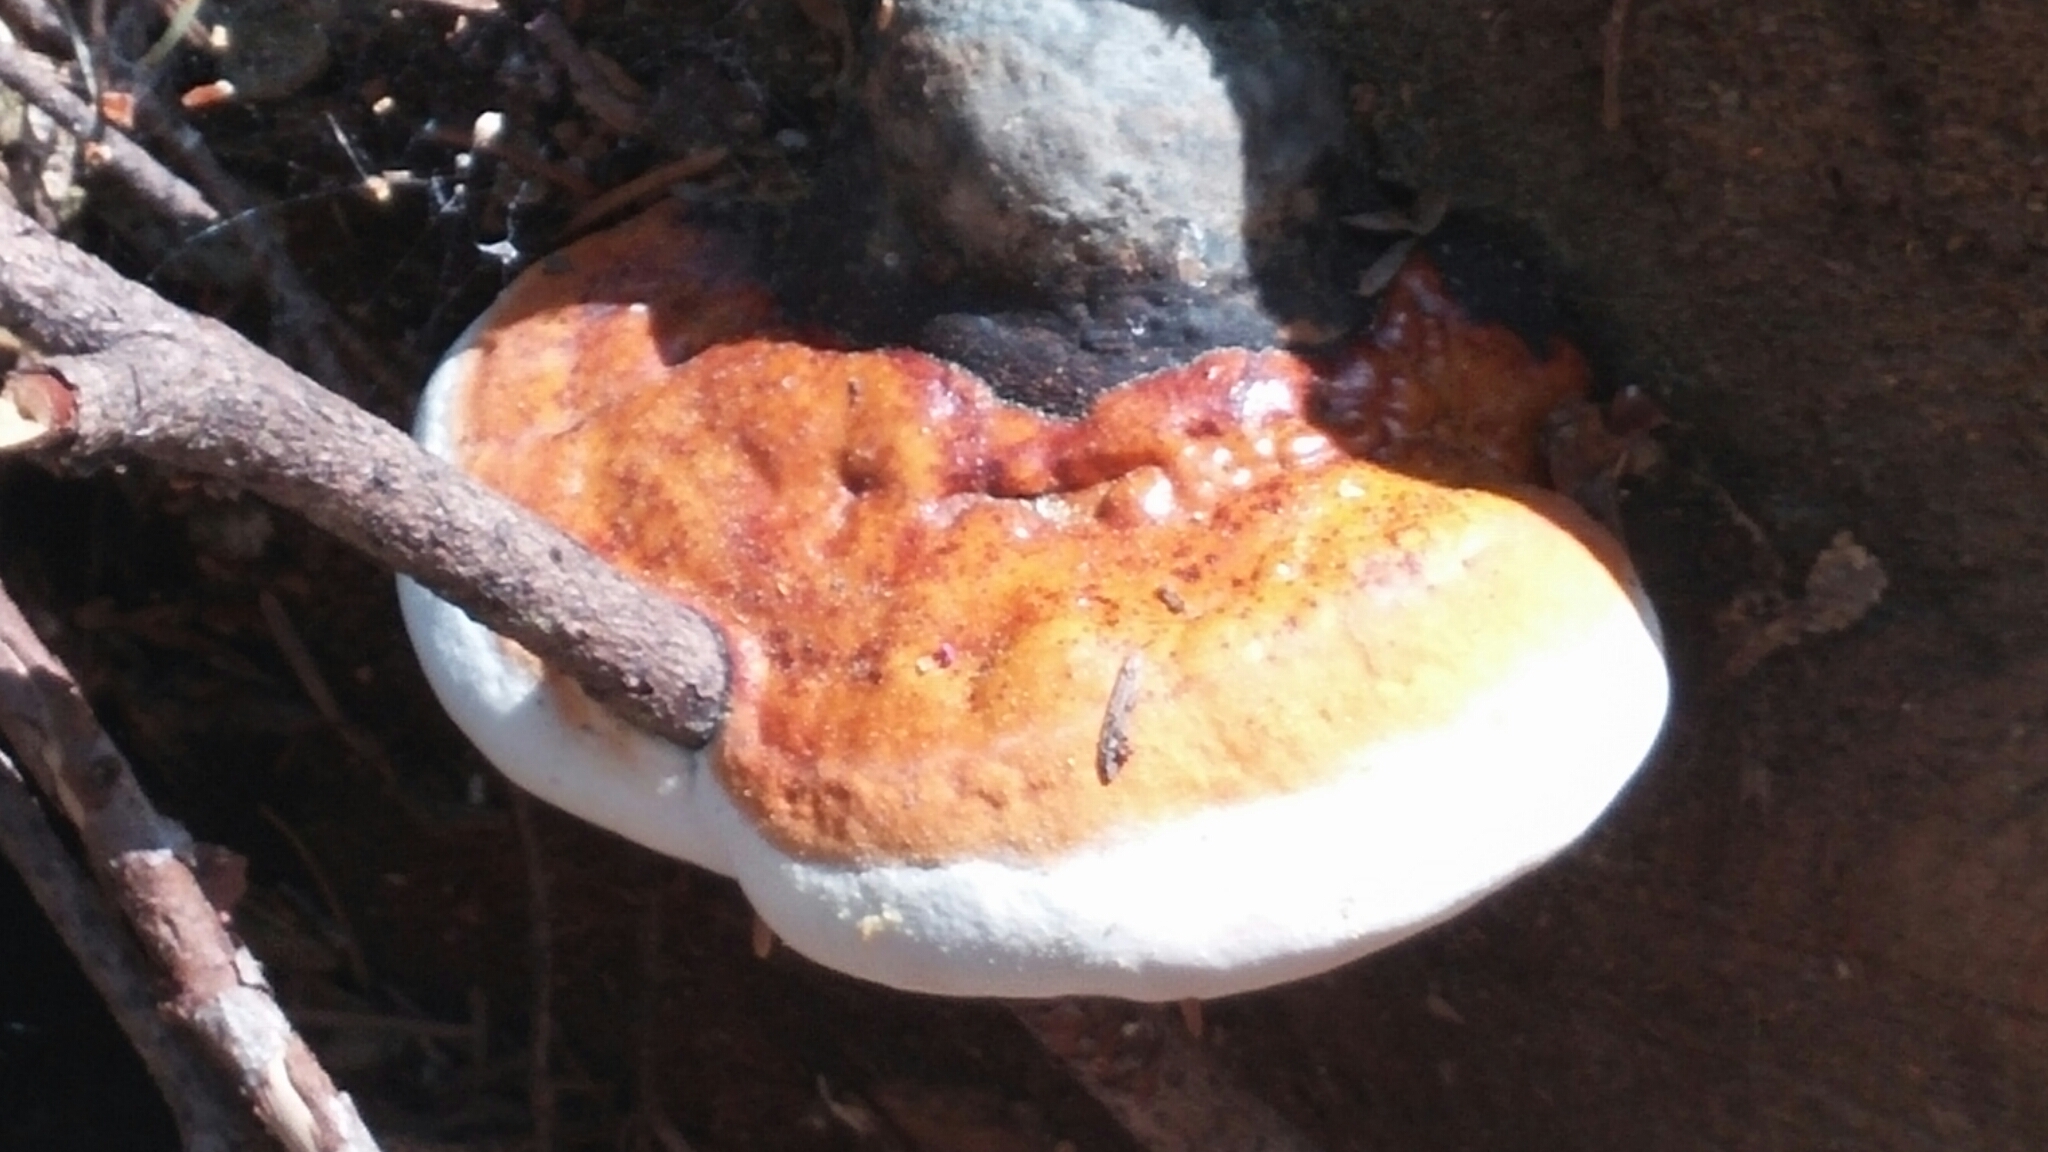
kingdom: Fungi
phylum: Basidiomycota
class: Agaricomycetes
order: Polyporales
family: Fomitopsidaceae
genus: Fomitopsis
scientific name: Fomitopsis mounceae
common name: Northern red belt
